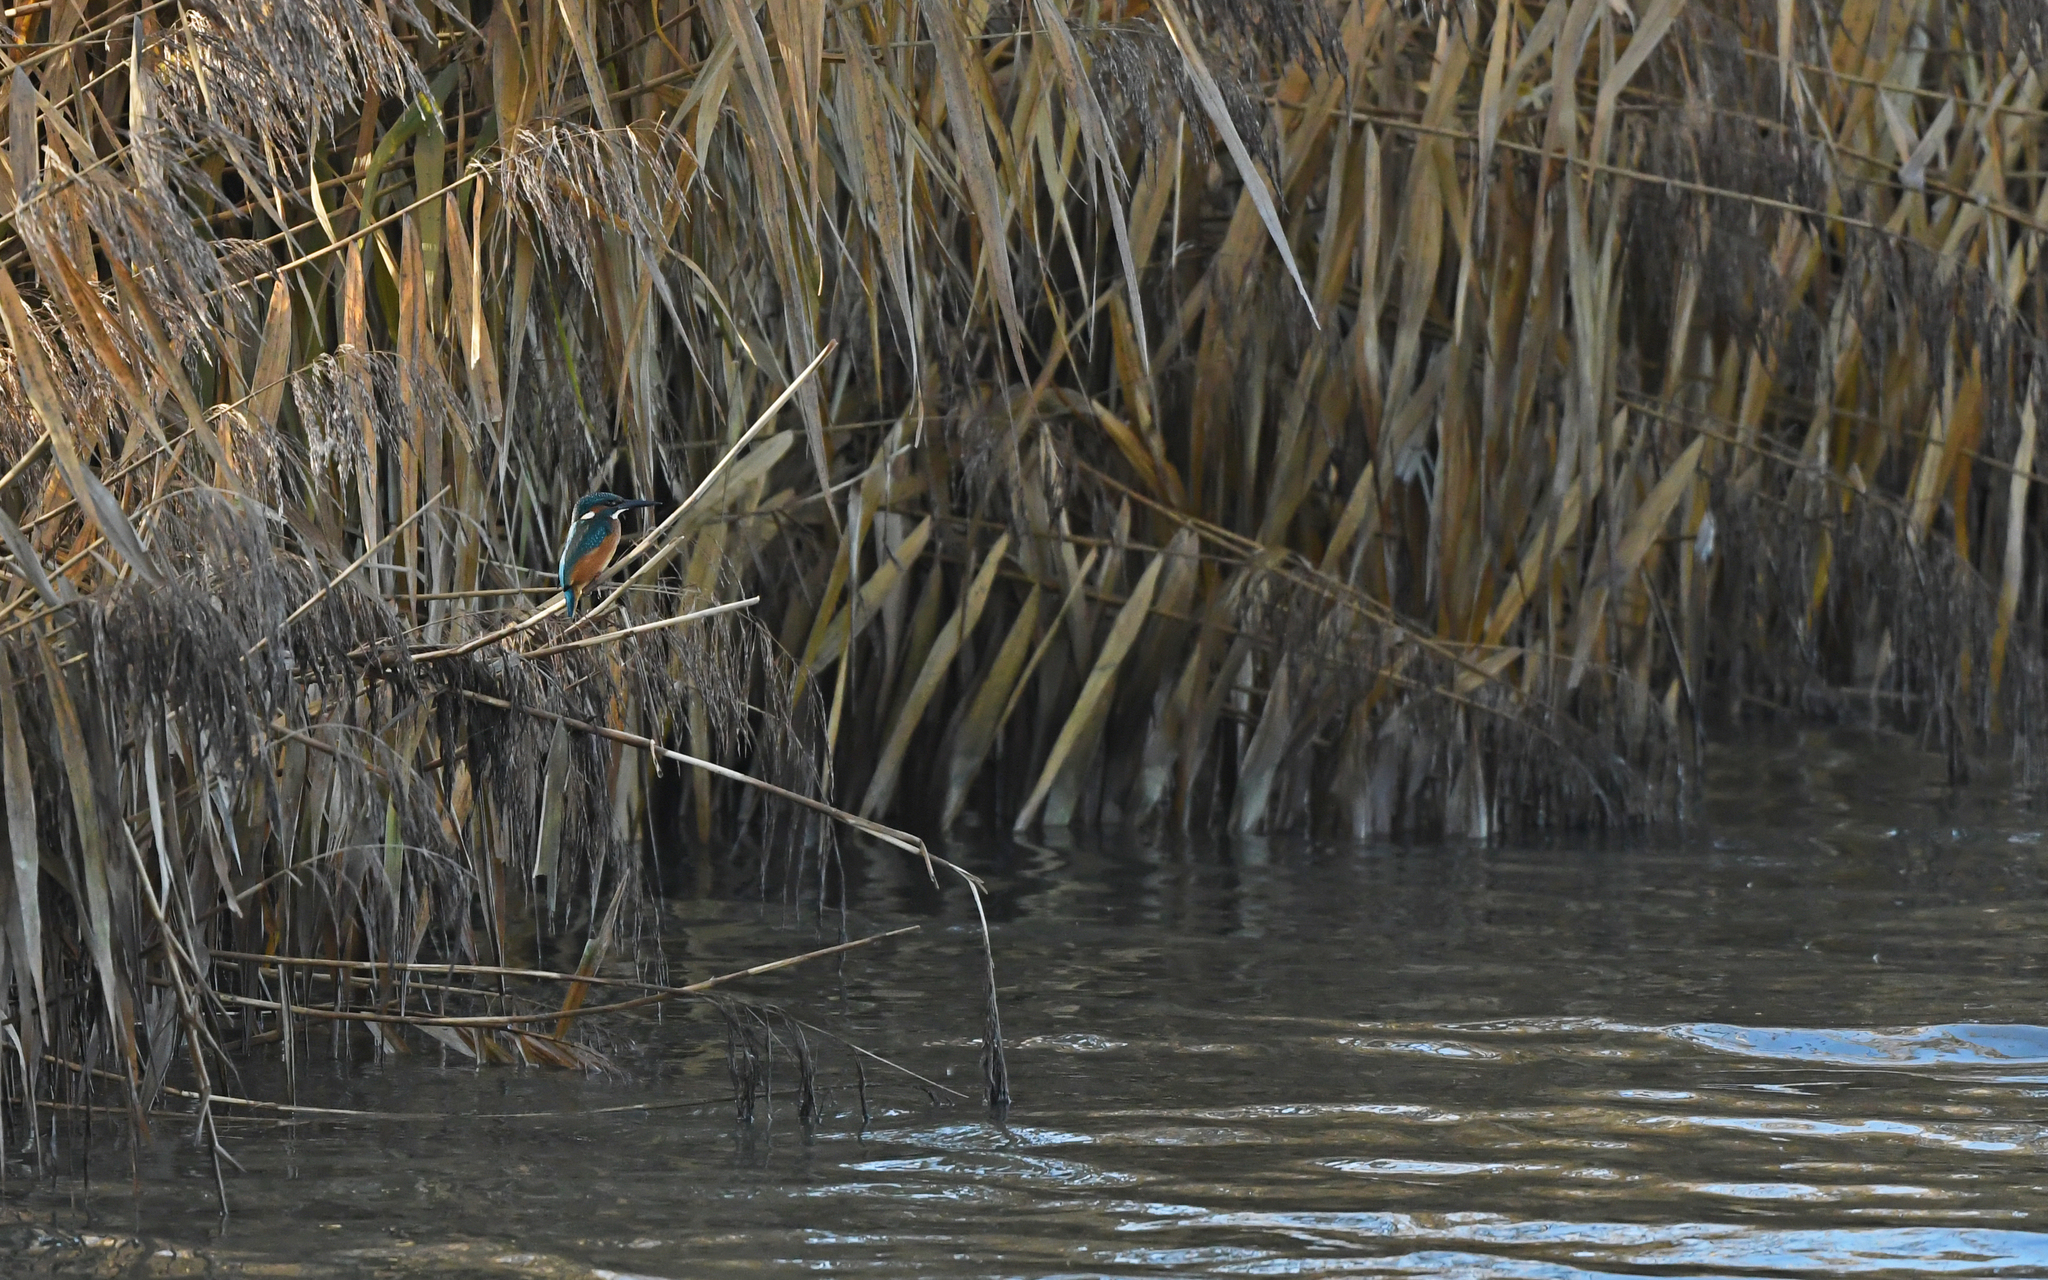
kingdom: Animalia
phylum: Chordata
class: Aves
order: Coraciiformes
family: Alcedinidae
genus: Alcedo
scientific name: Alcedo atthis
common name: Common kingfisher
